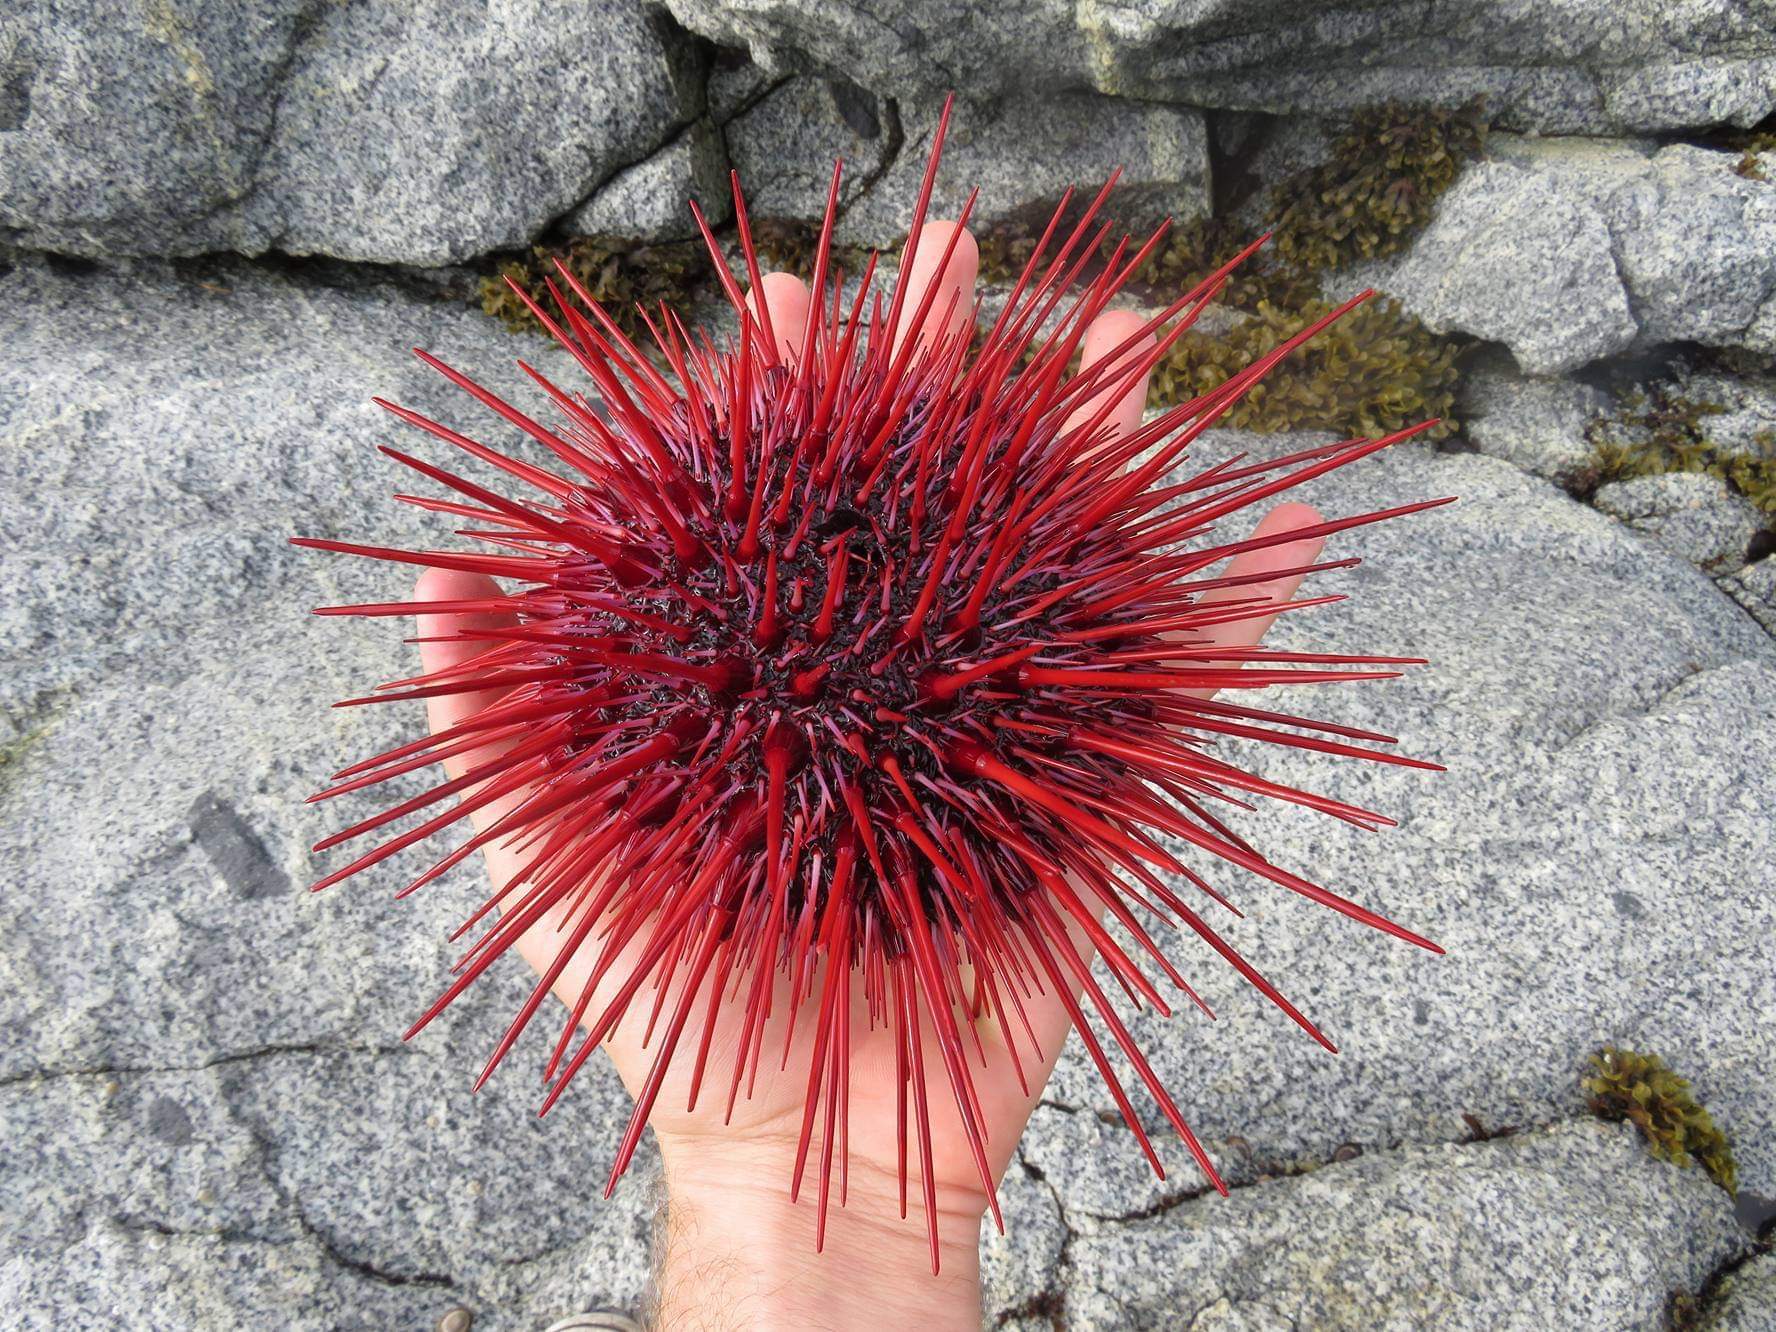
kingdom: Animalia
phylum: Echinodermata
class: Echinoidea
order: Camarodonta
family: Strongylocentrotidae
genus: Mesocentrotus
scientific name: Mesocentrotus franciscanus
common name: Red sea urchin
